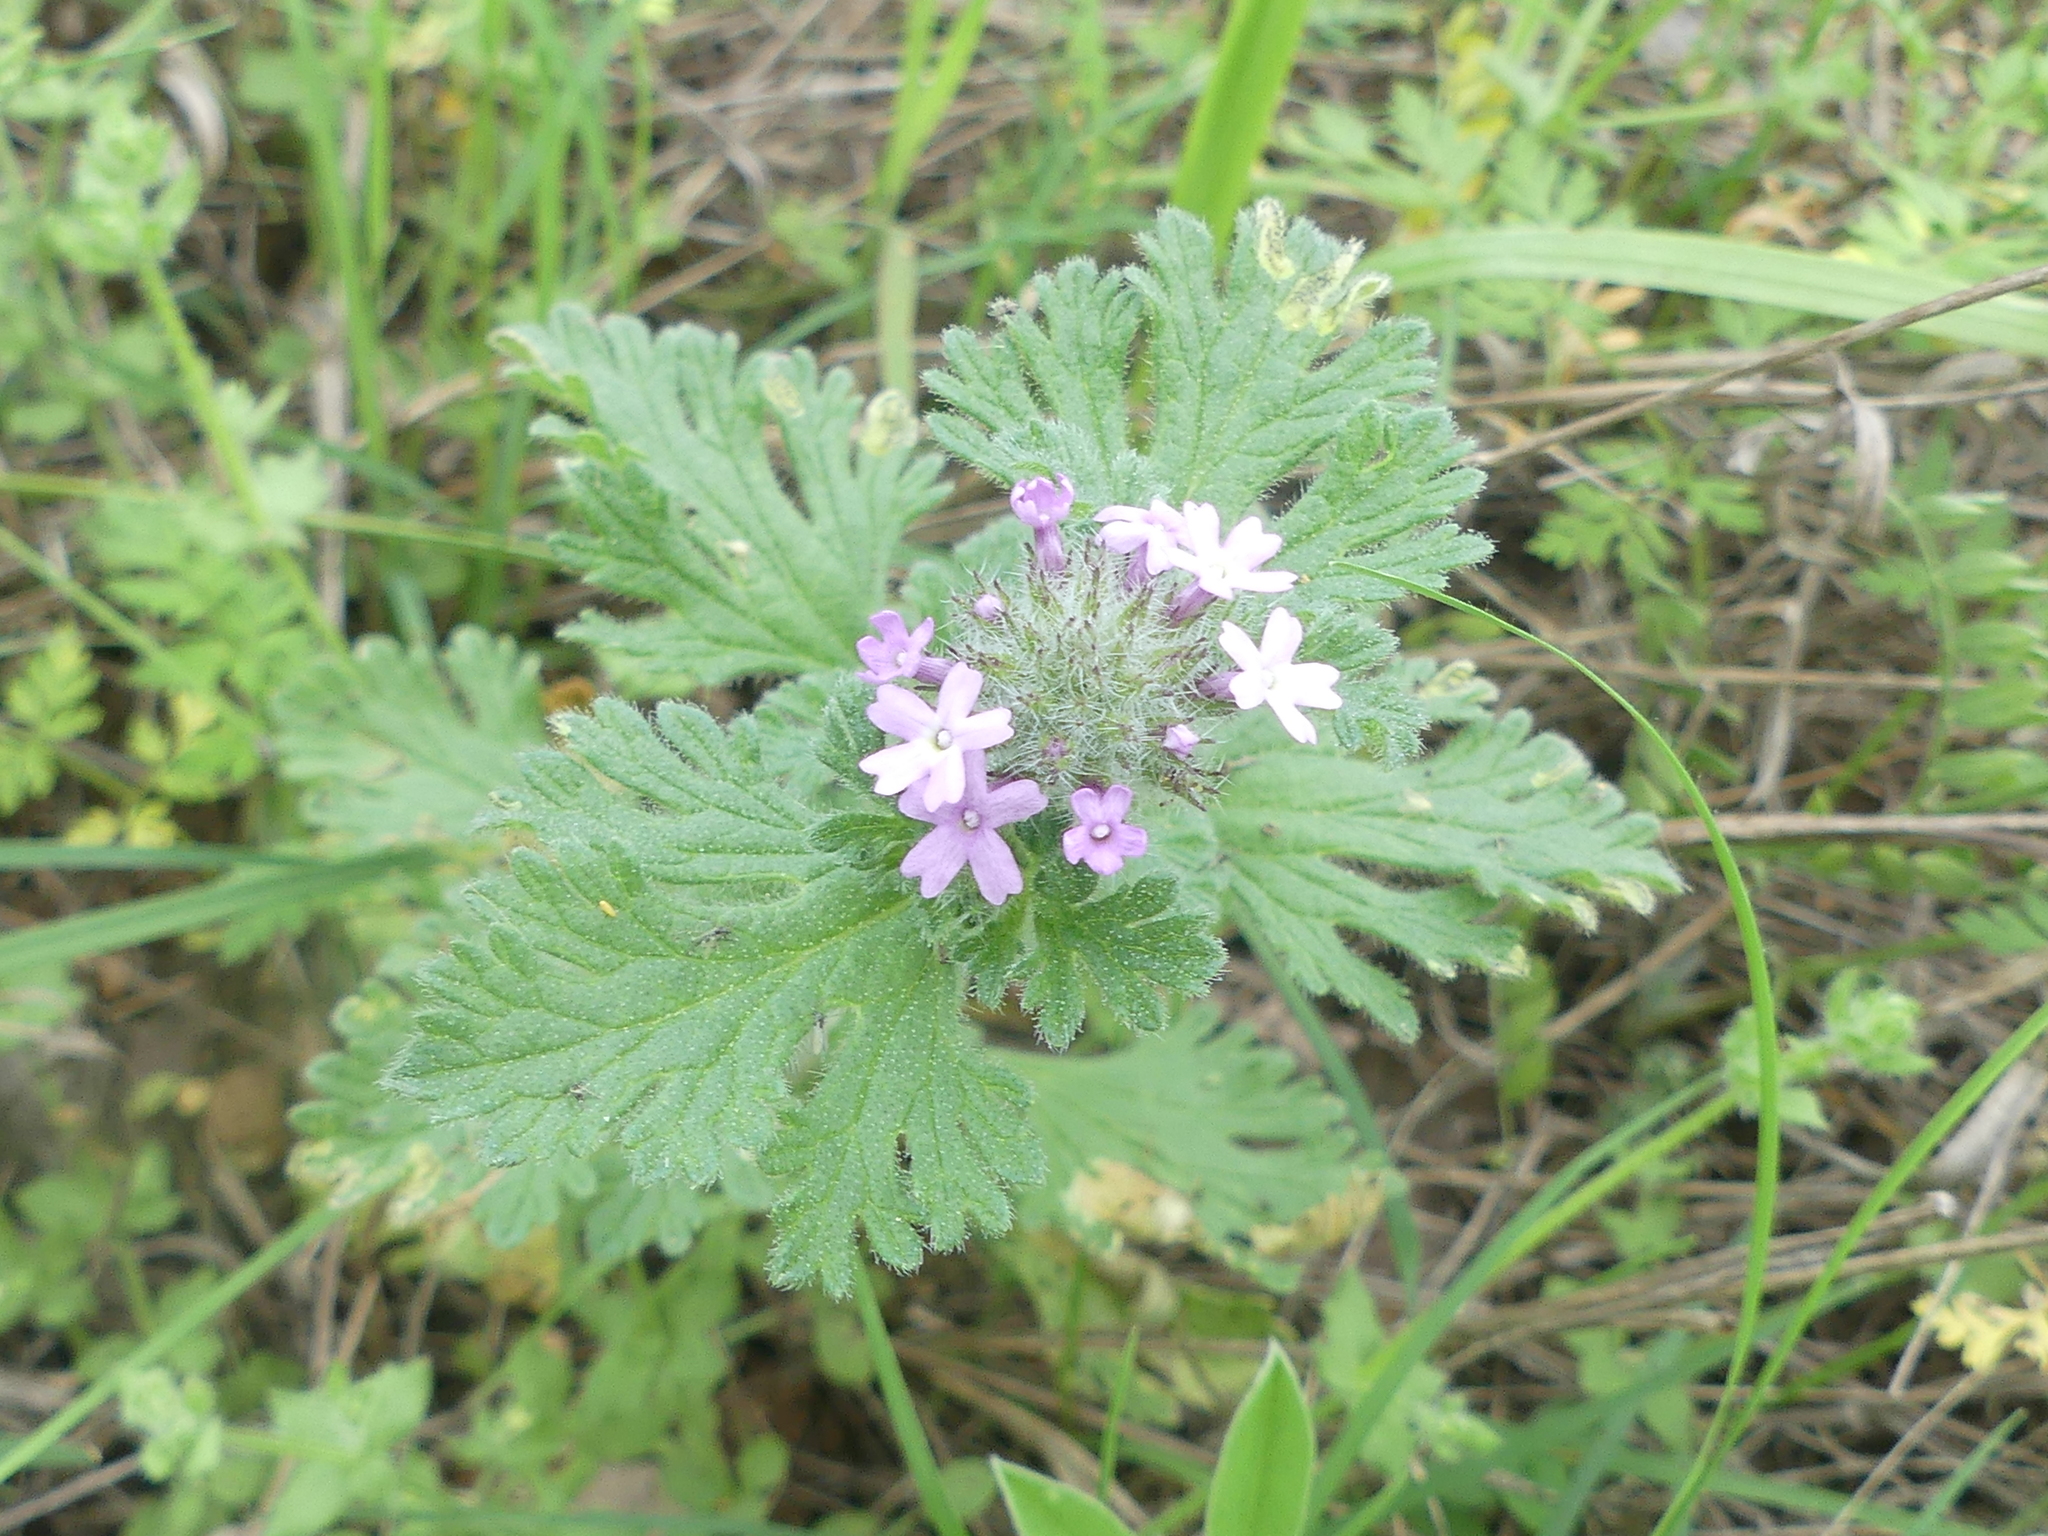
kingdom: Plantae
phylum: Tracheophyta
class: Magnoliopsida
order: Lamiales
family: Verbenaceae
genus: Verbena
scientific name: Verbena pumila
